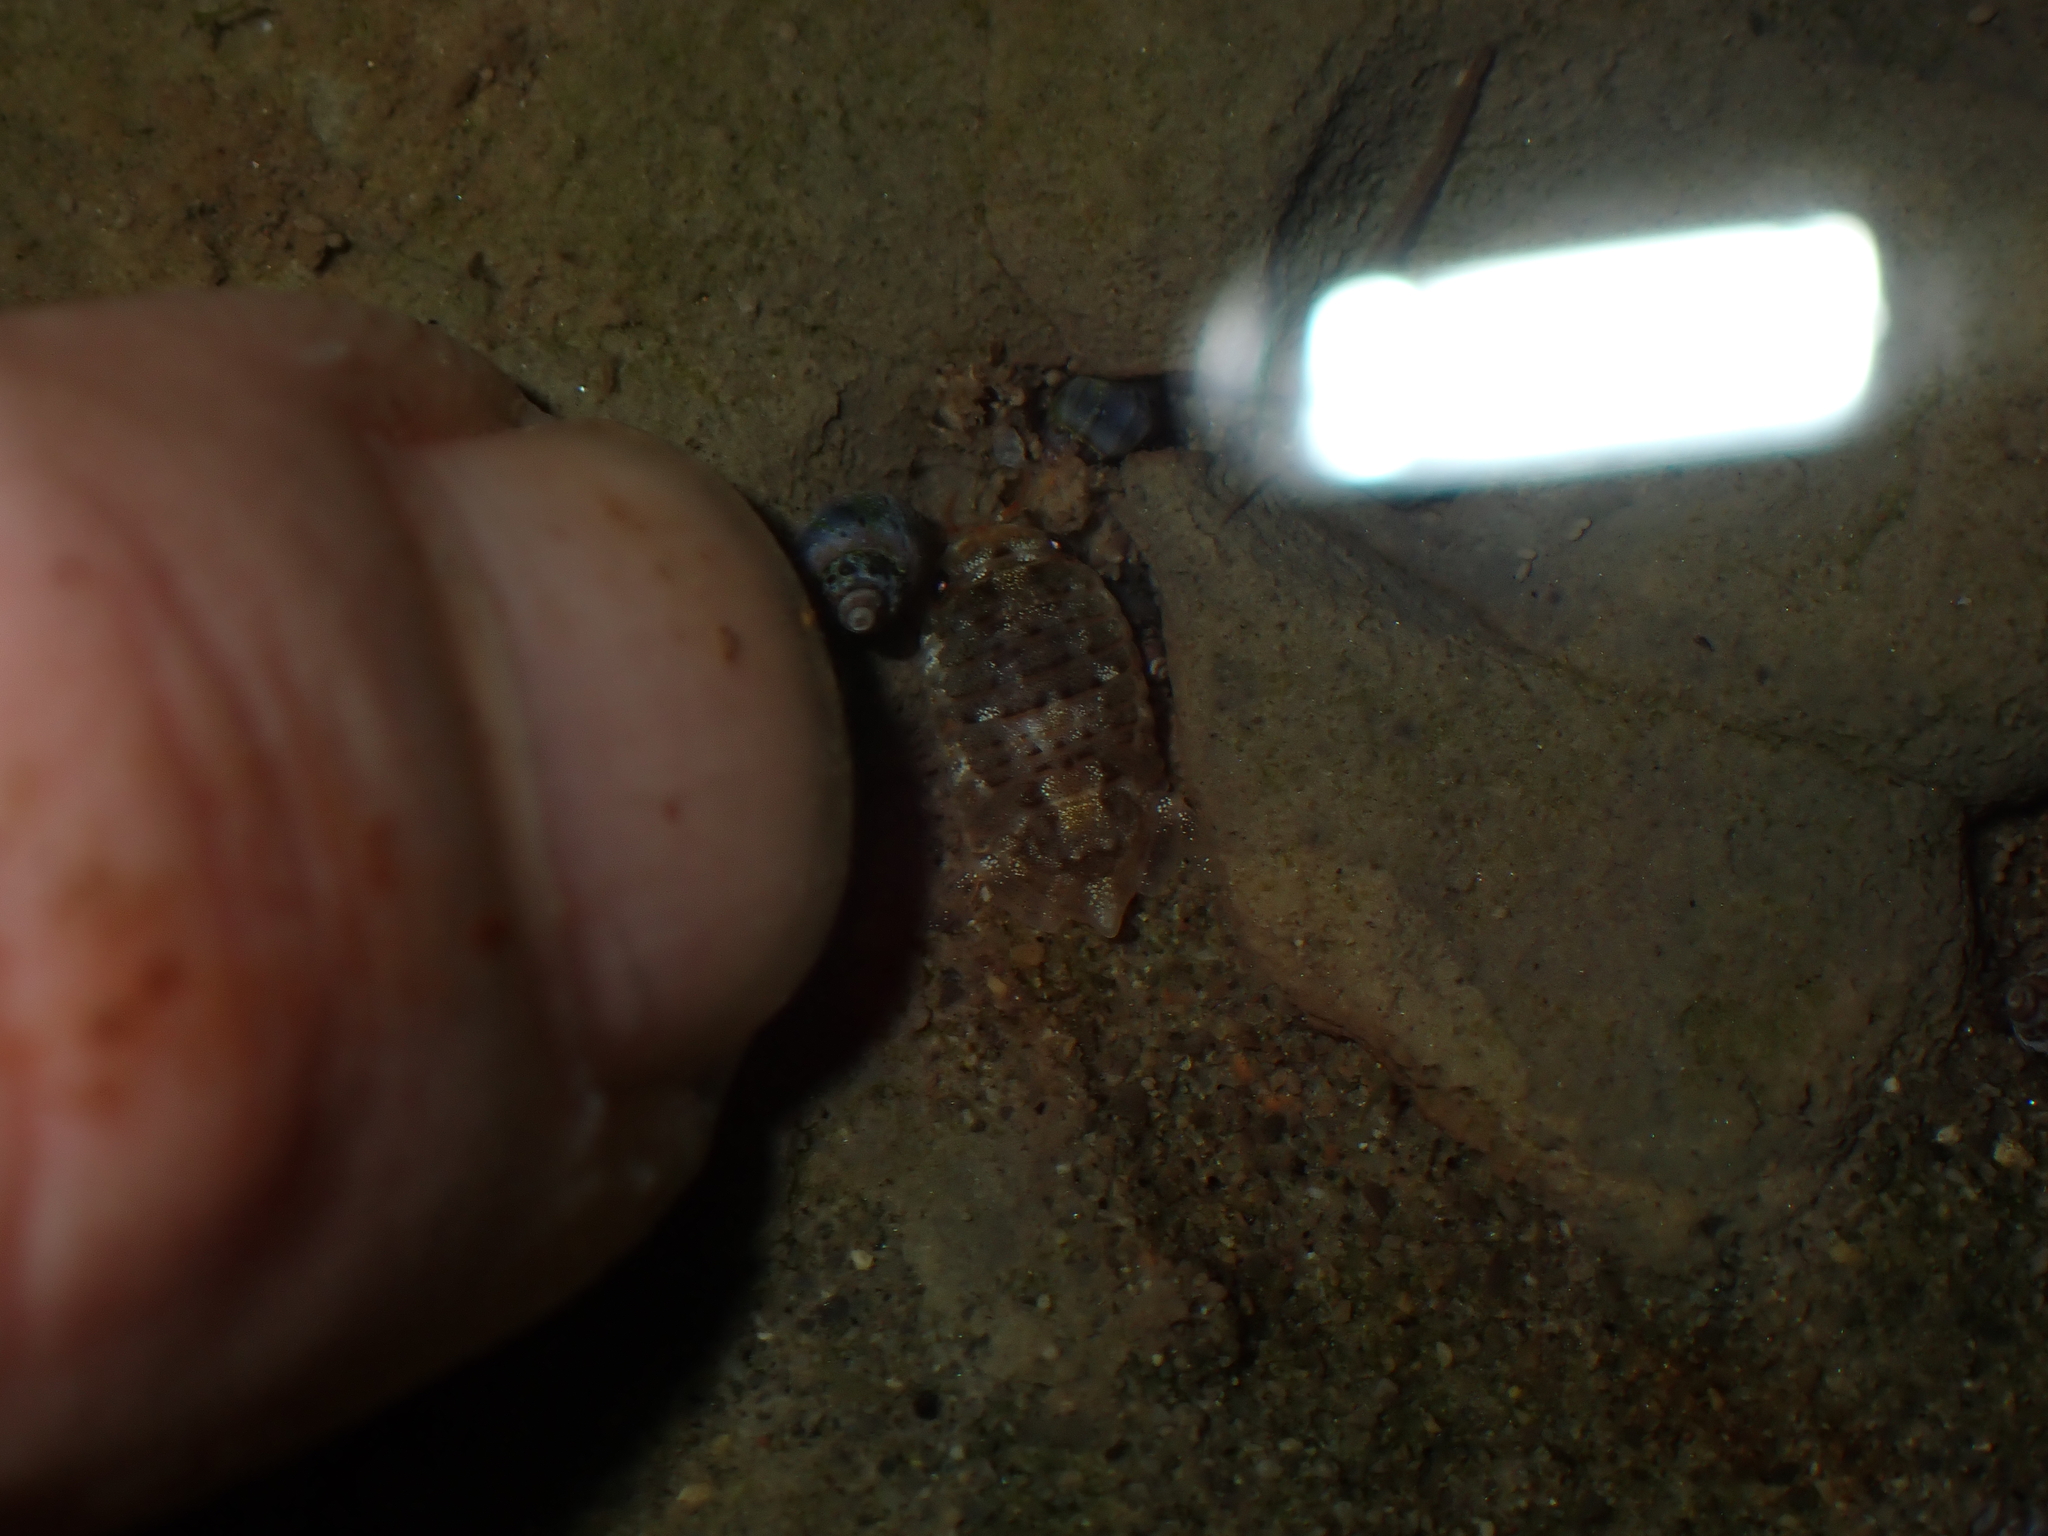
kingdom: Animalia
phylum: Arthropoda
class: Malacostraca
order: Isopoda
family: Sphaeromatidae
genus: Isocladus
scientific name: Isocladus armatus
